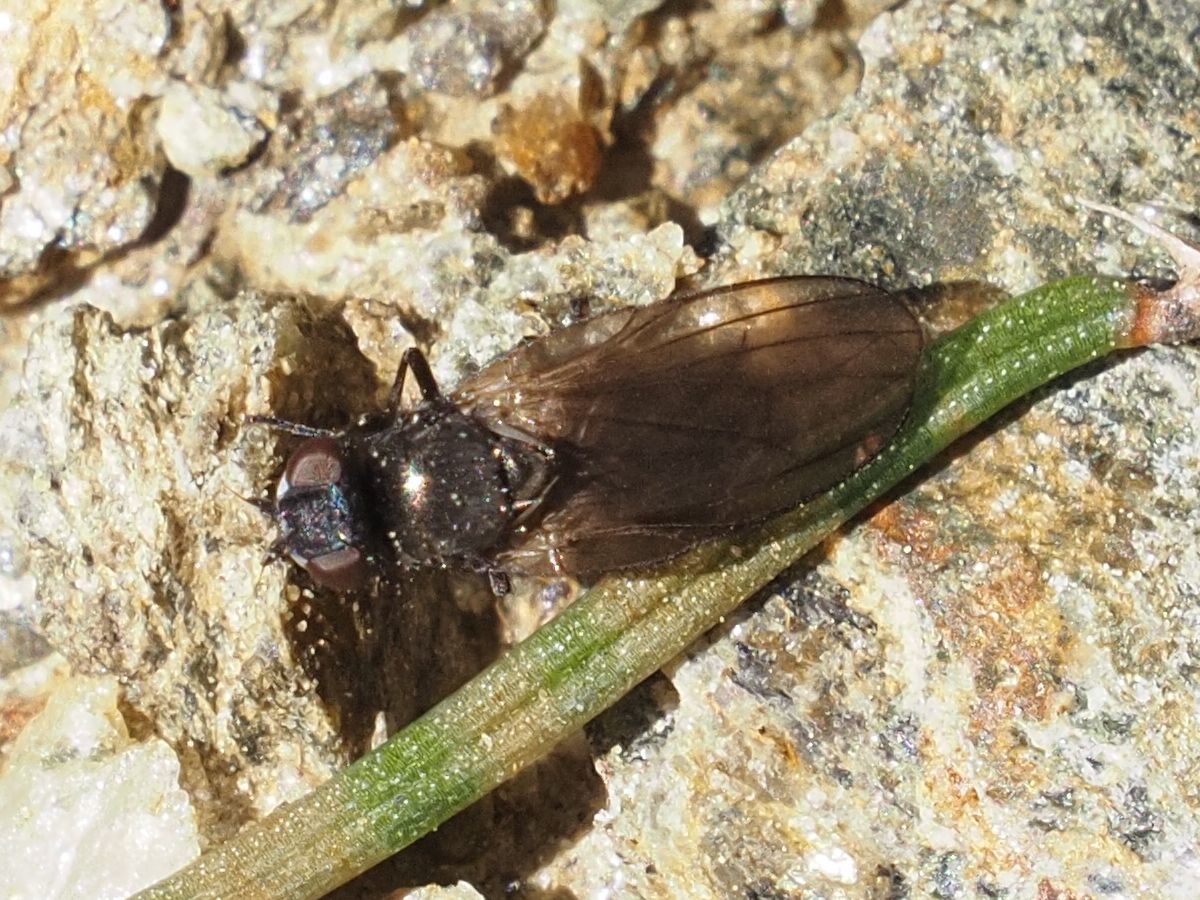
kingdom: Animalia
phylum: Arthropoda
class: Insecta
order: Diptera
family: Lonchaeidae
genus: Earomyia
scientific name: Earomyia lonchaeoides
